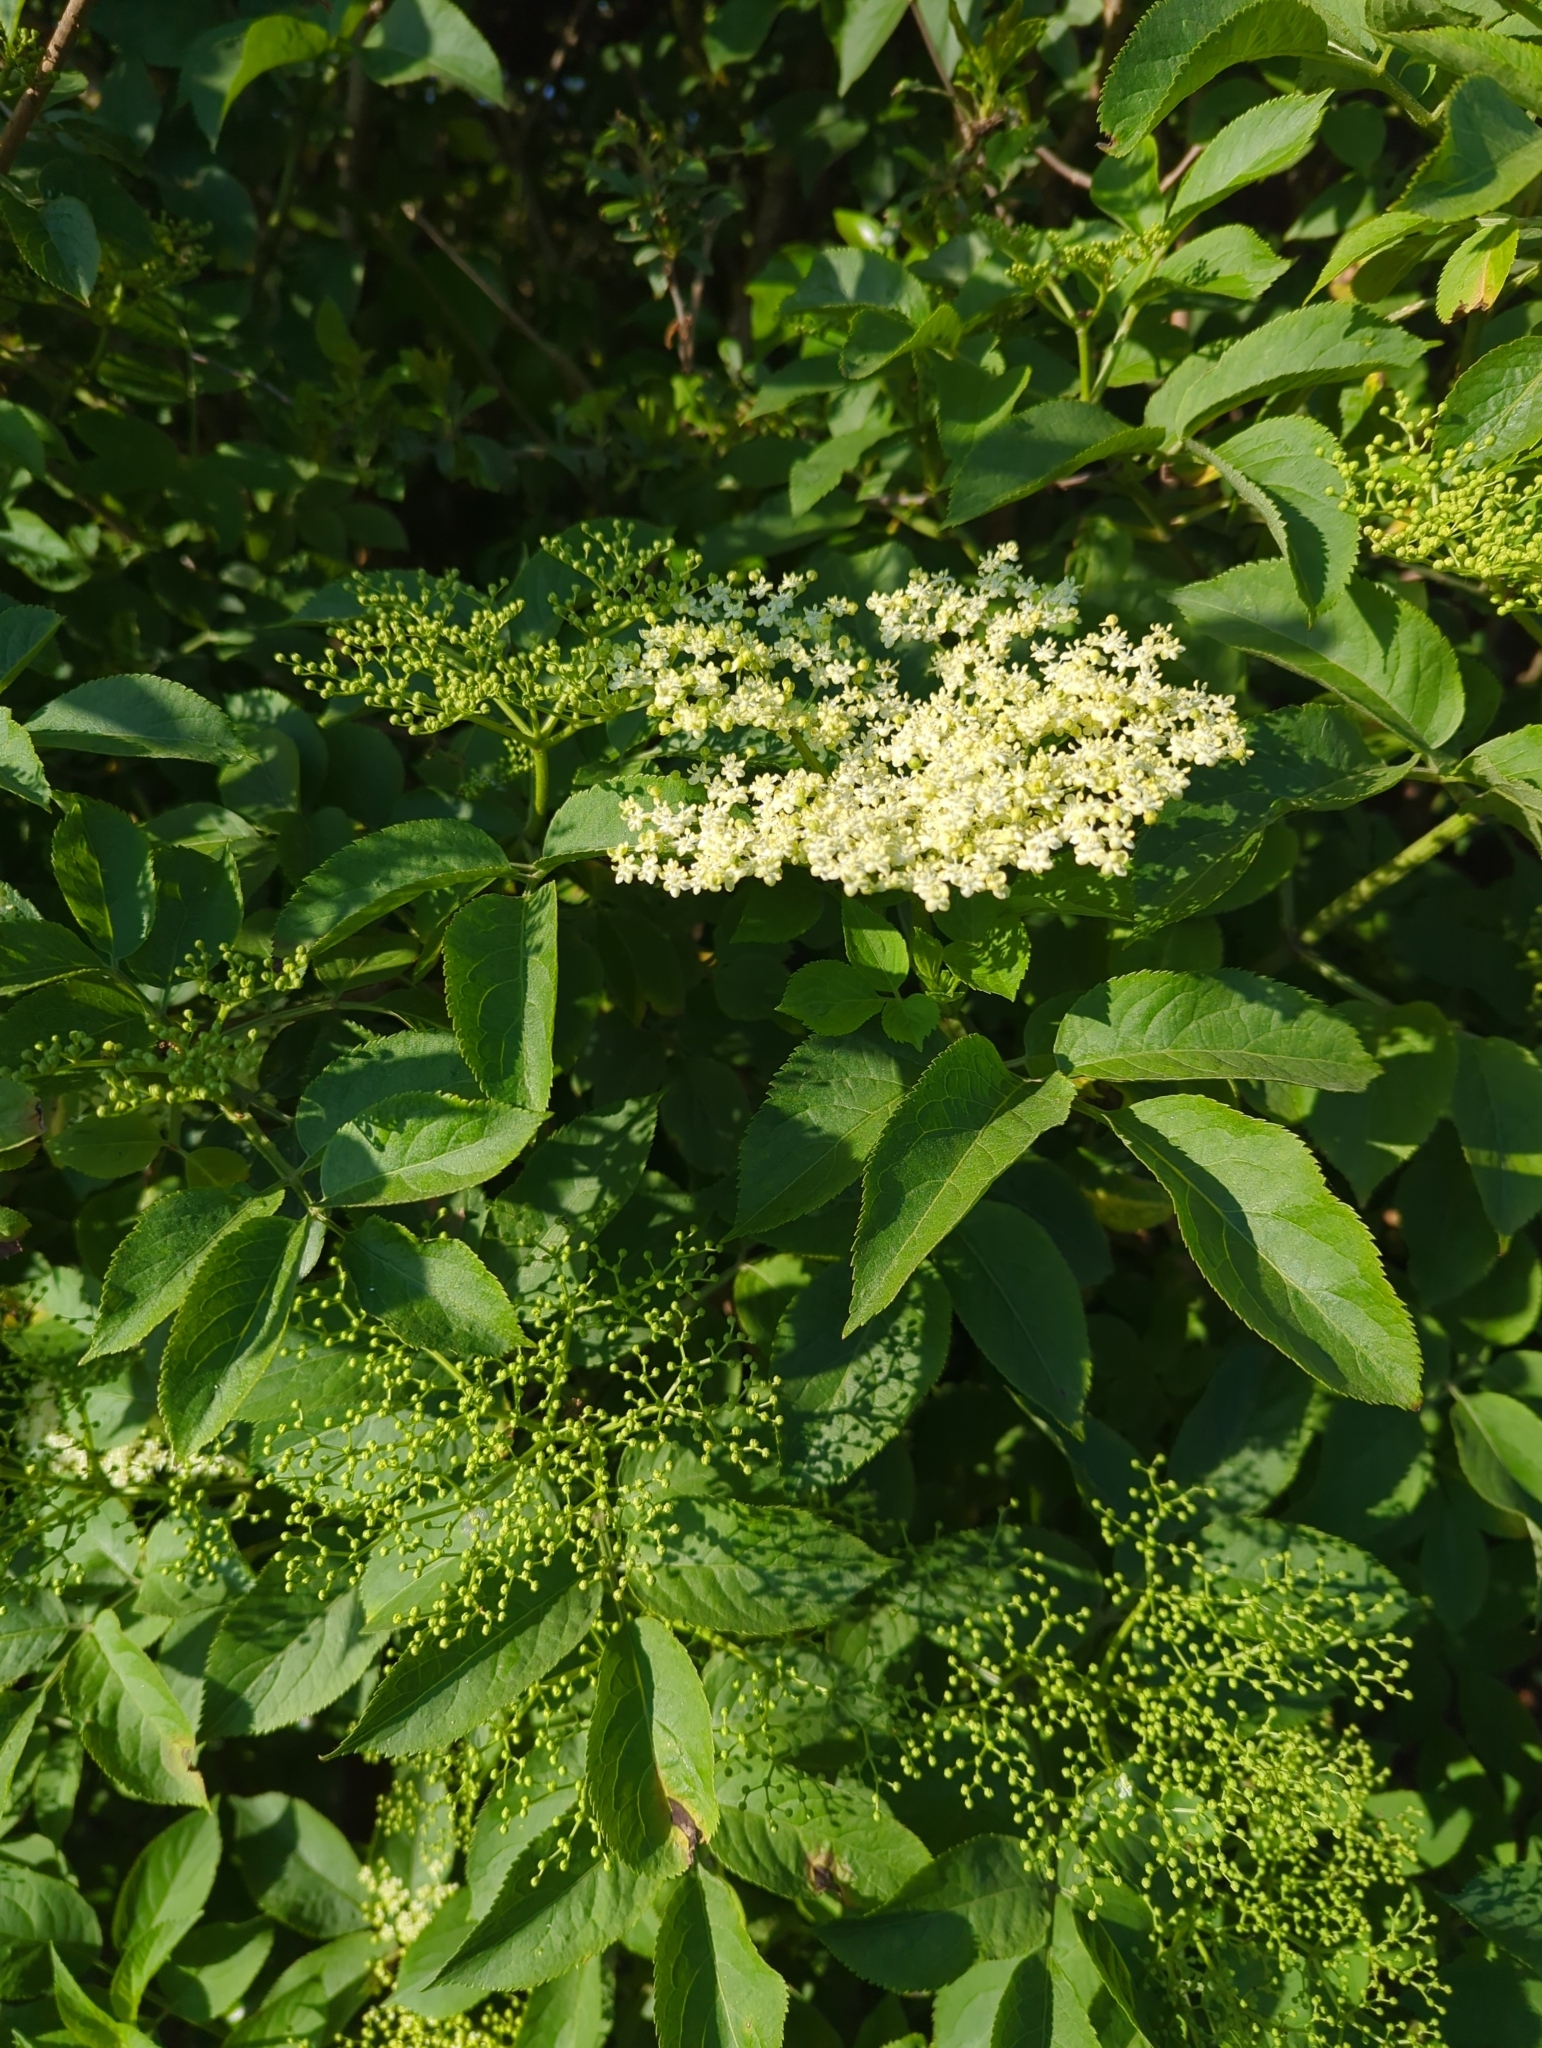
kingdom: Plantae
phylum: Tracheophyta
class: Magnoliopsida
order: Dipsacales
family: Viburnaceae
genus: Sambucus
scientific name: Sambucus nigra
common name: Elder
